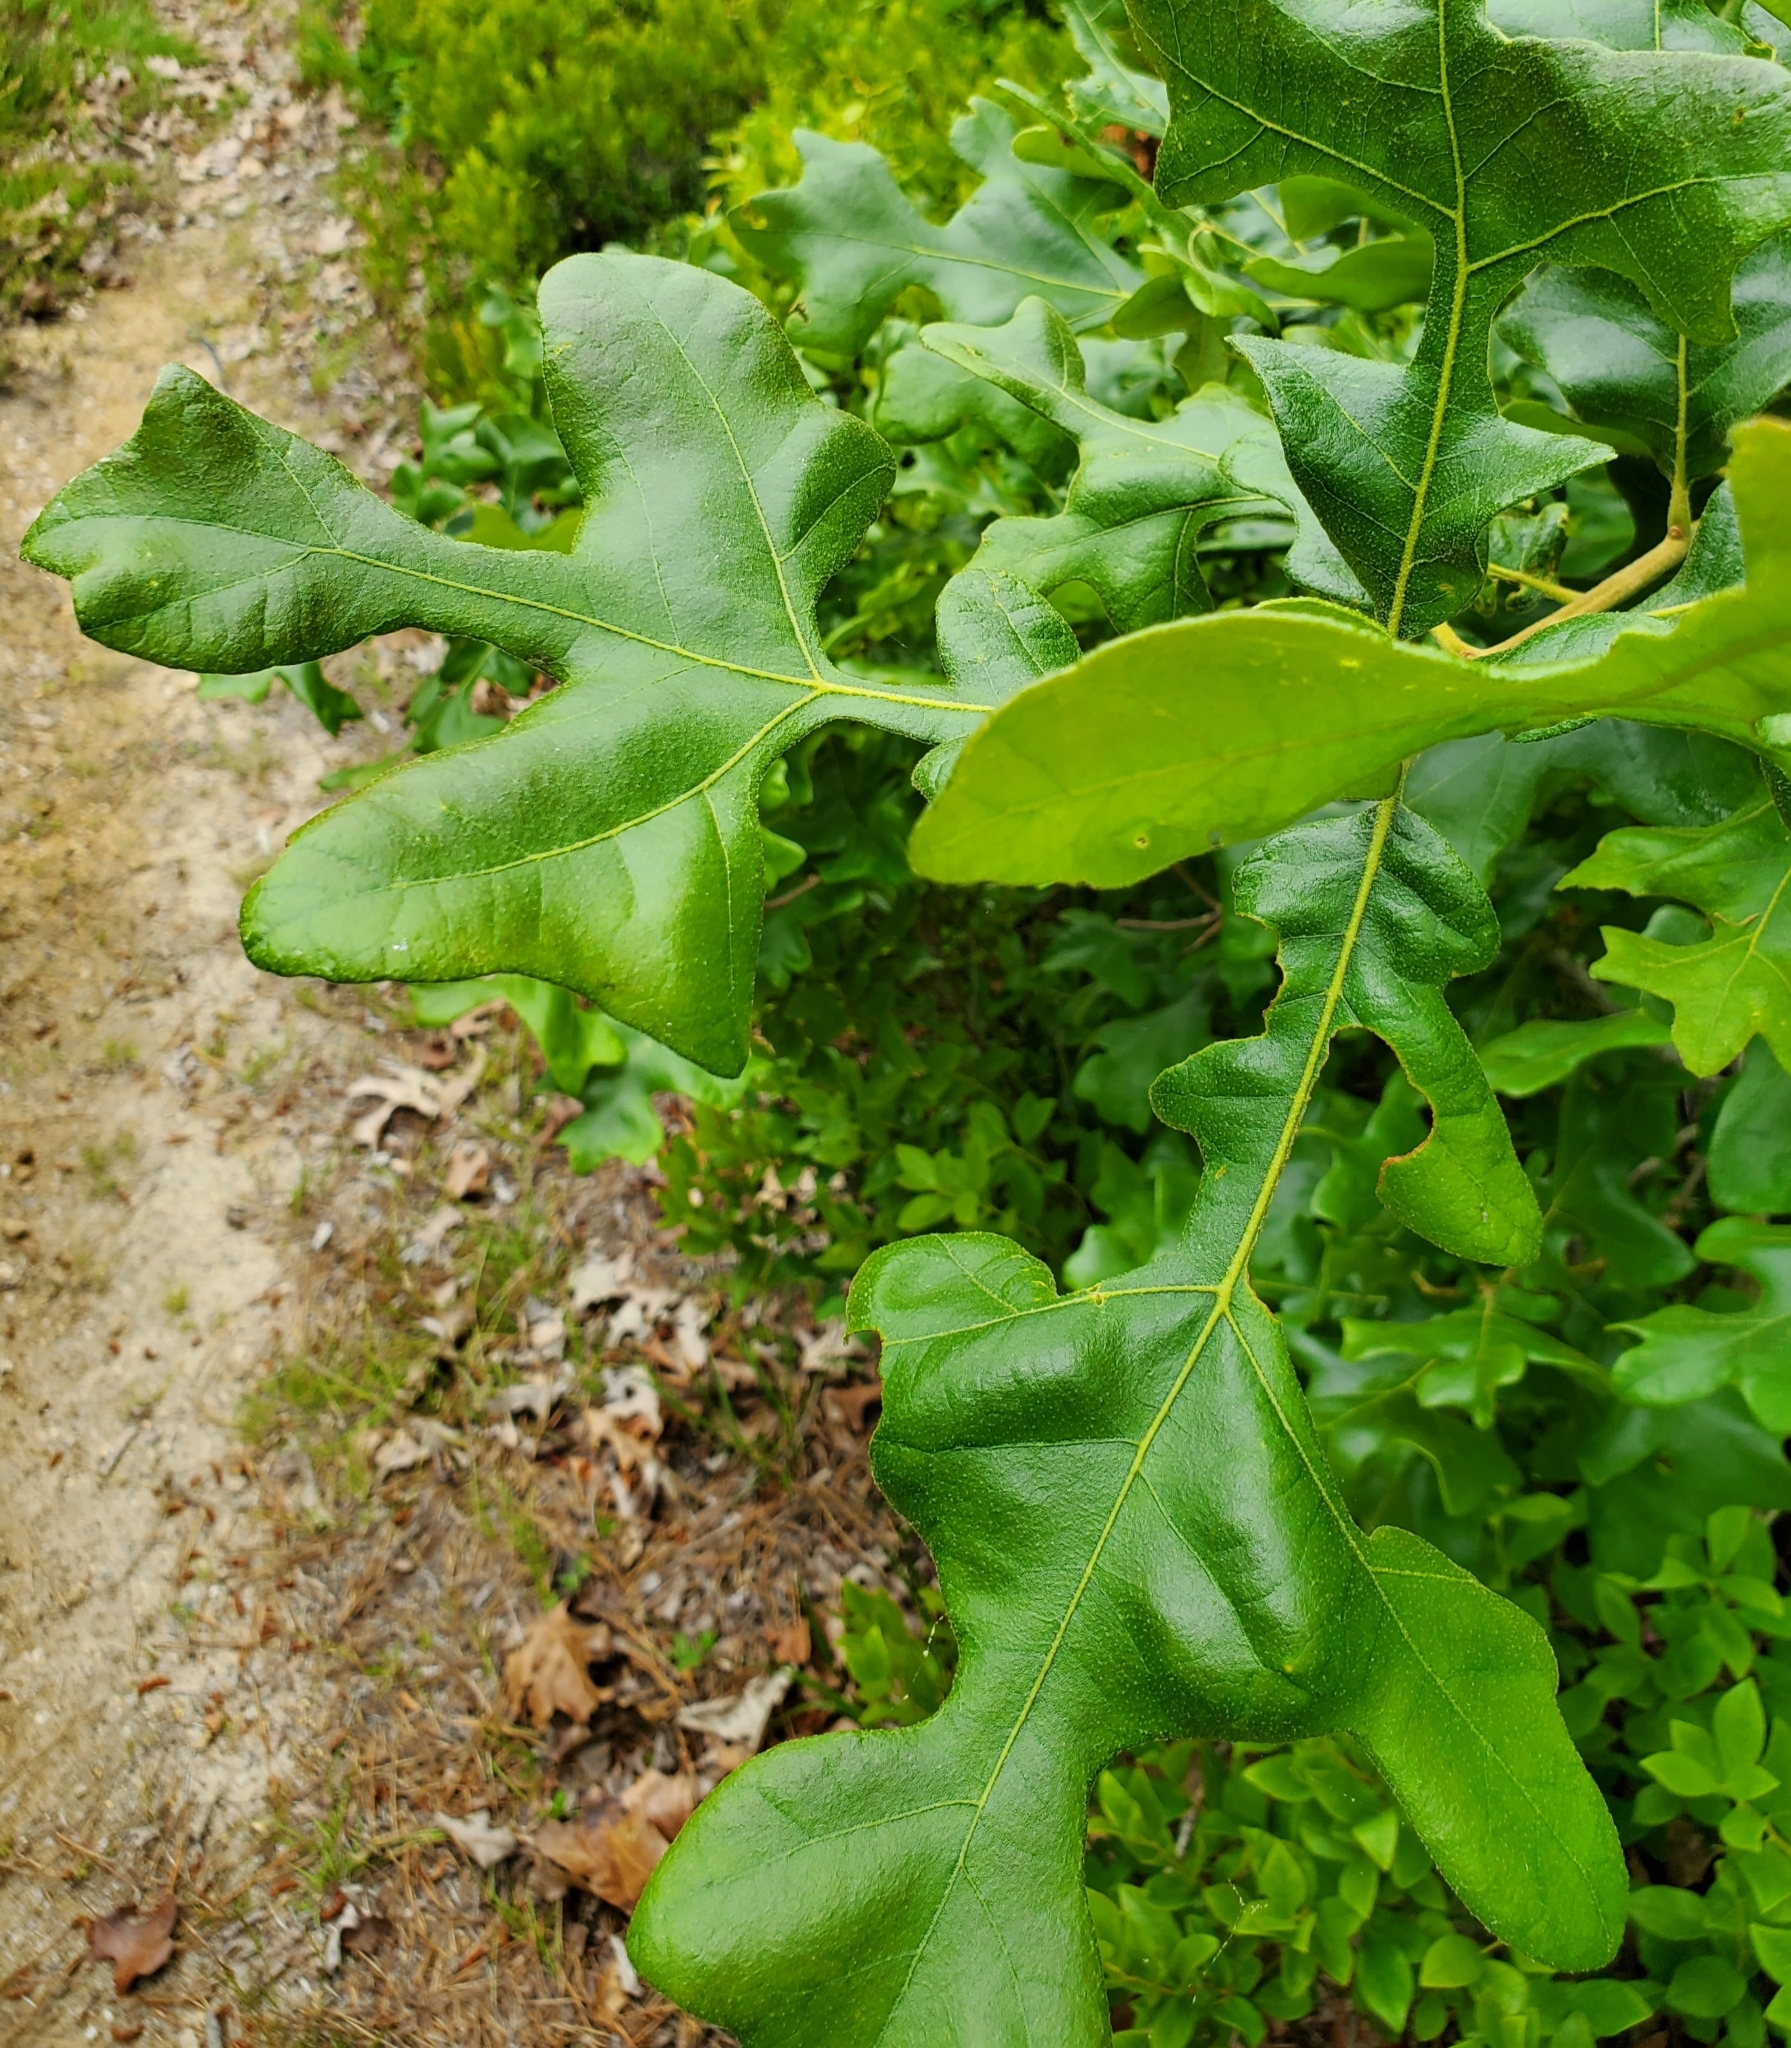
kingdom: Plantae
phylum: Tracheophyta
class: Magnoliopsida
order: Fagales
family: Fagaceae
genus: Quercus
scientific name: Quercus stellata
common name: Post oak
